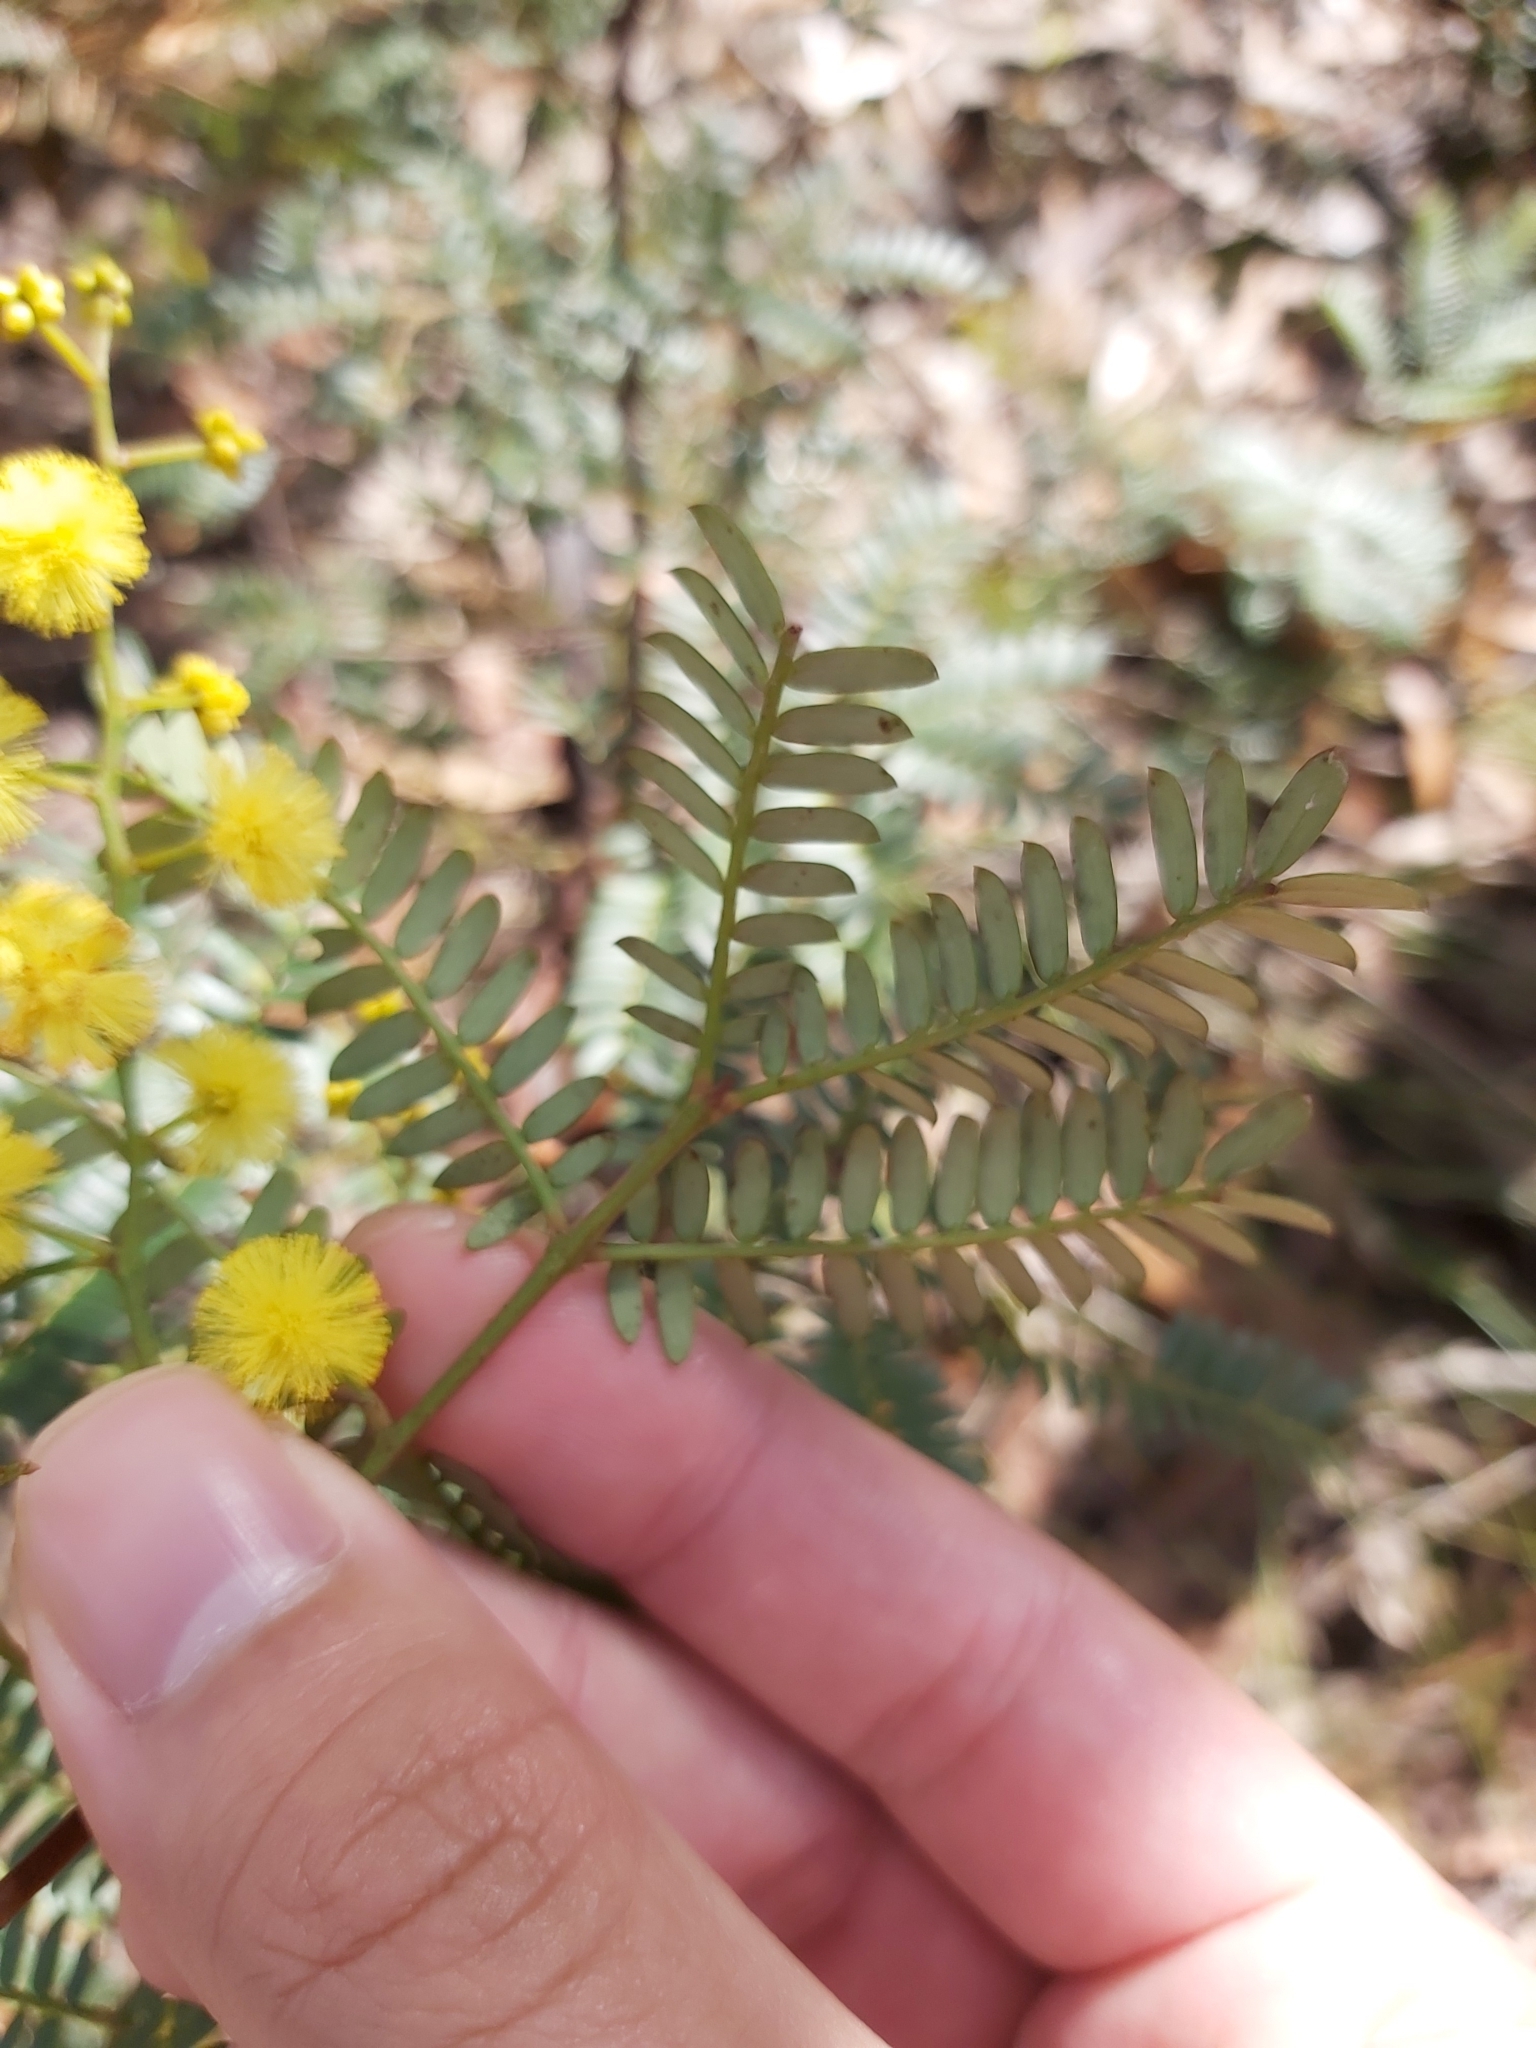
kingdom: Plantae
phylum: Tracheophyta
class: Magnoliopsida
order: Fabales
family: Fabaceae
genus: Acacia
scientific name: Acacia terminalis
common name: Cedar wattle
